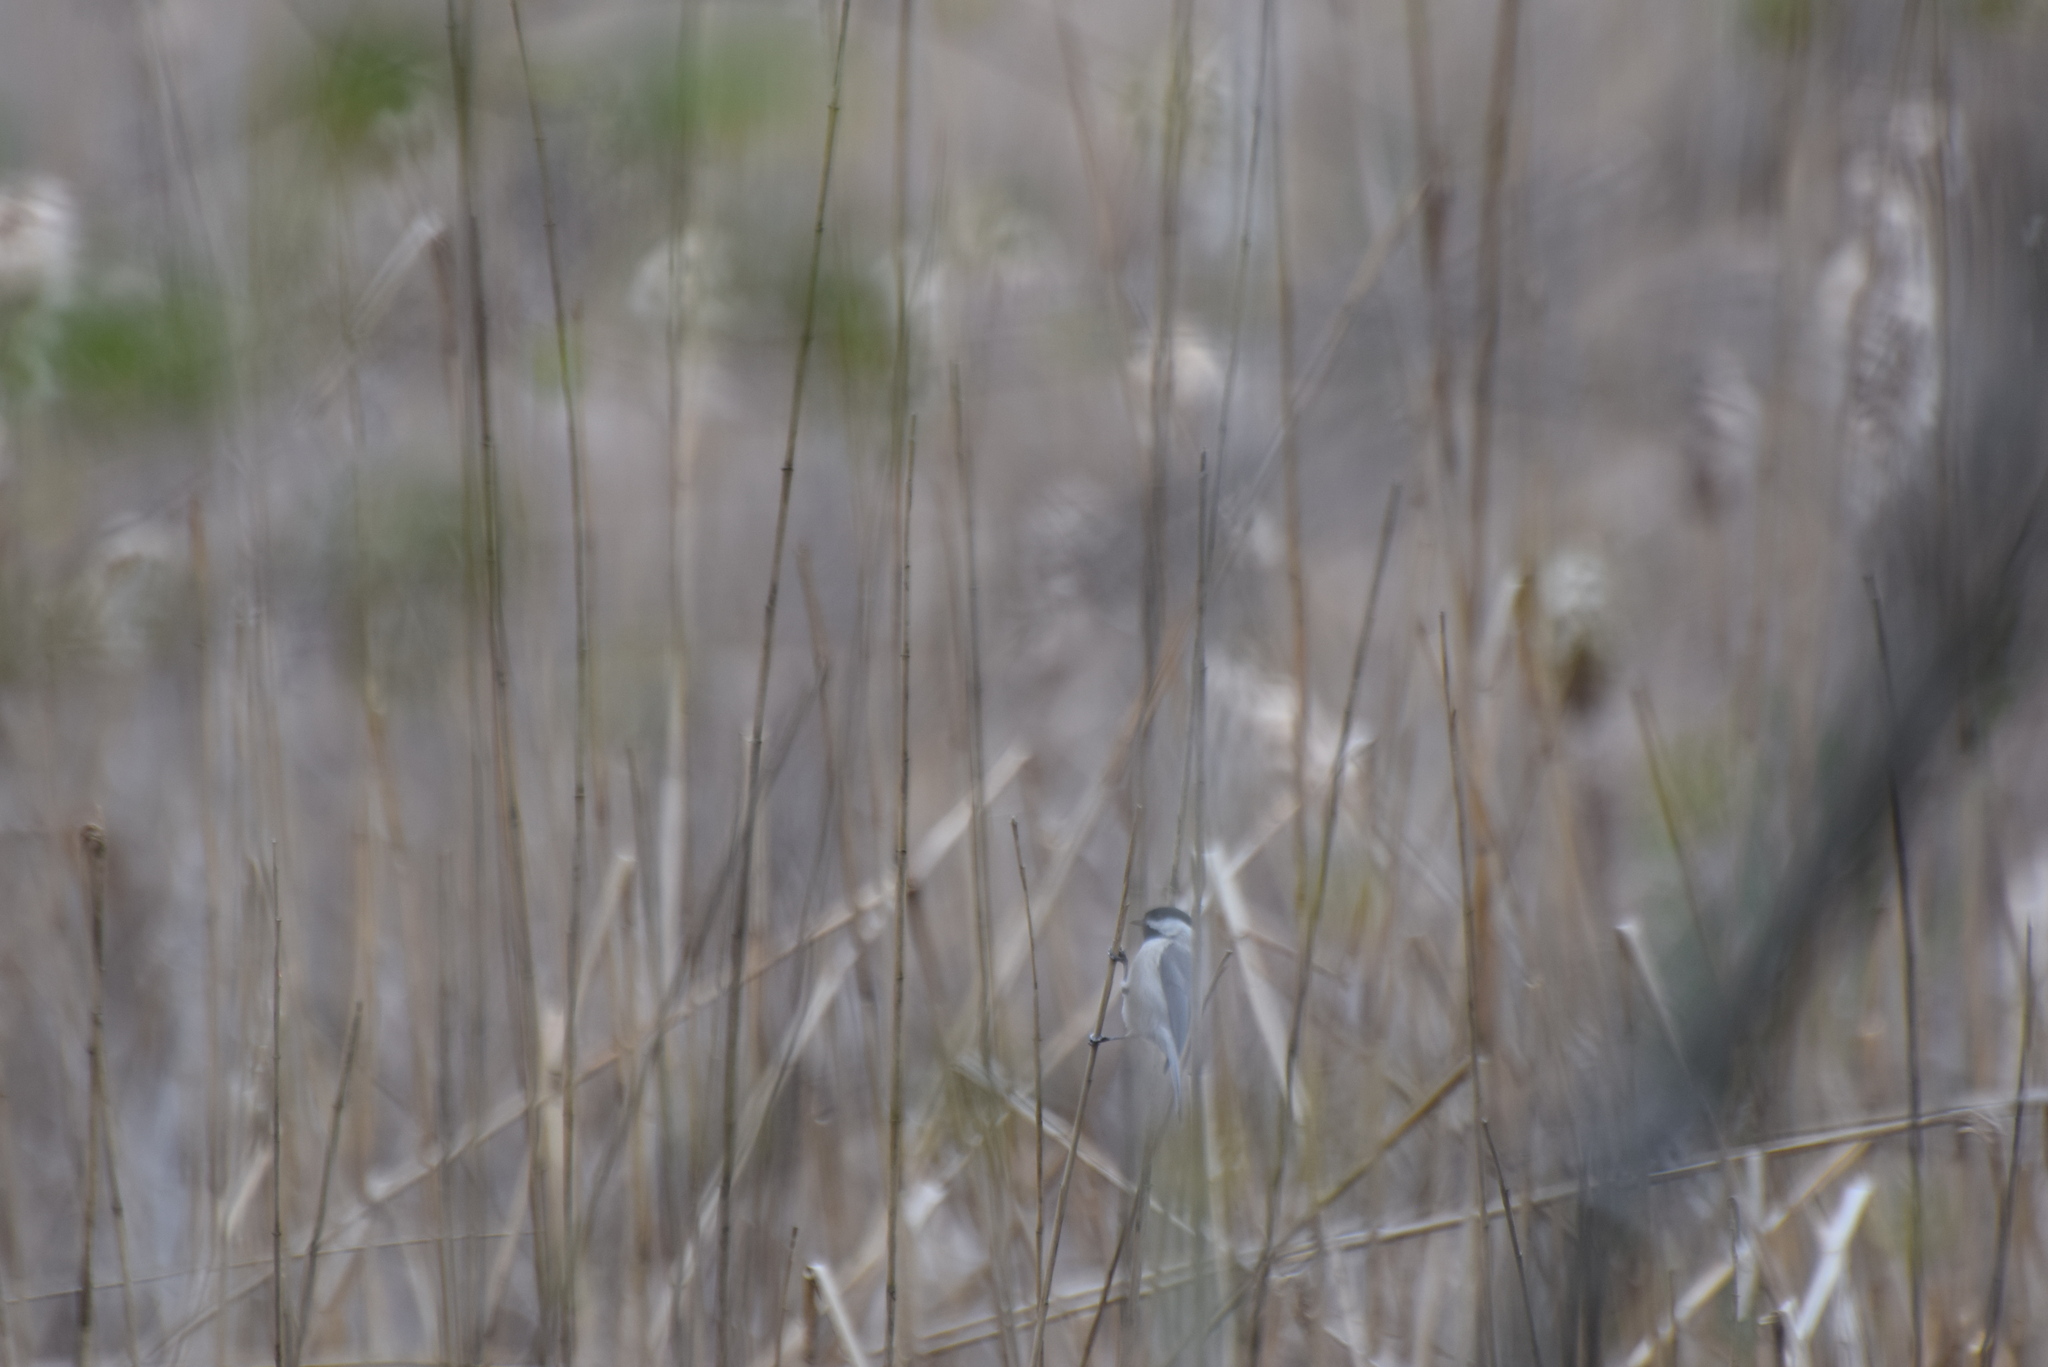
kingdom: Animalia
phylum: Chordata
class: Aves
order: Passeriformes
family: Paridae
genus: Poecile
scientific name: Poecile carolinensis
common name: Carolina chickadee
